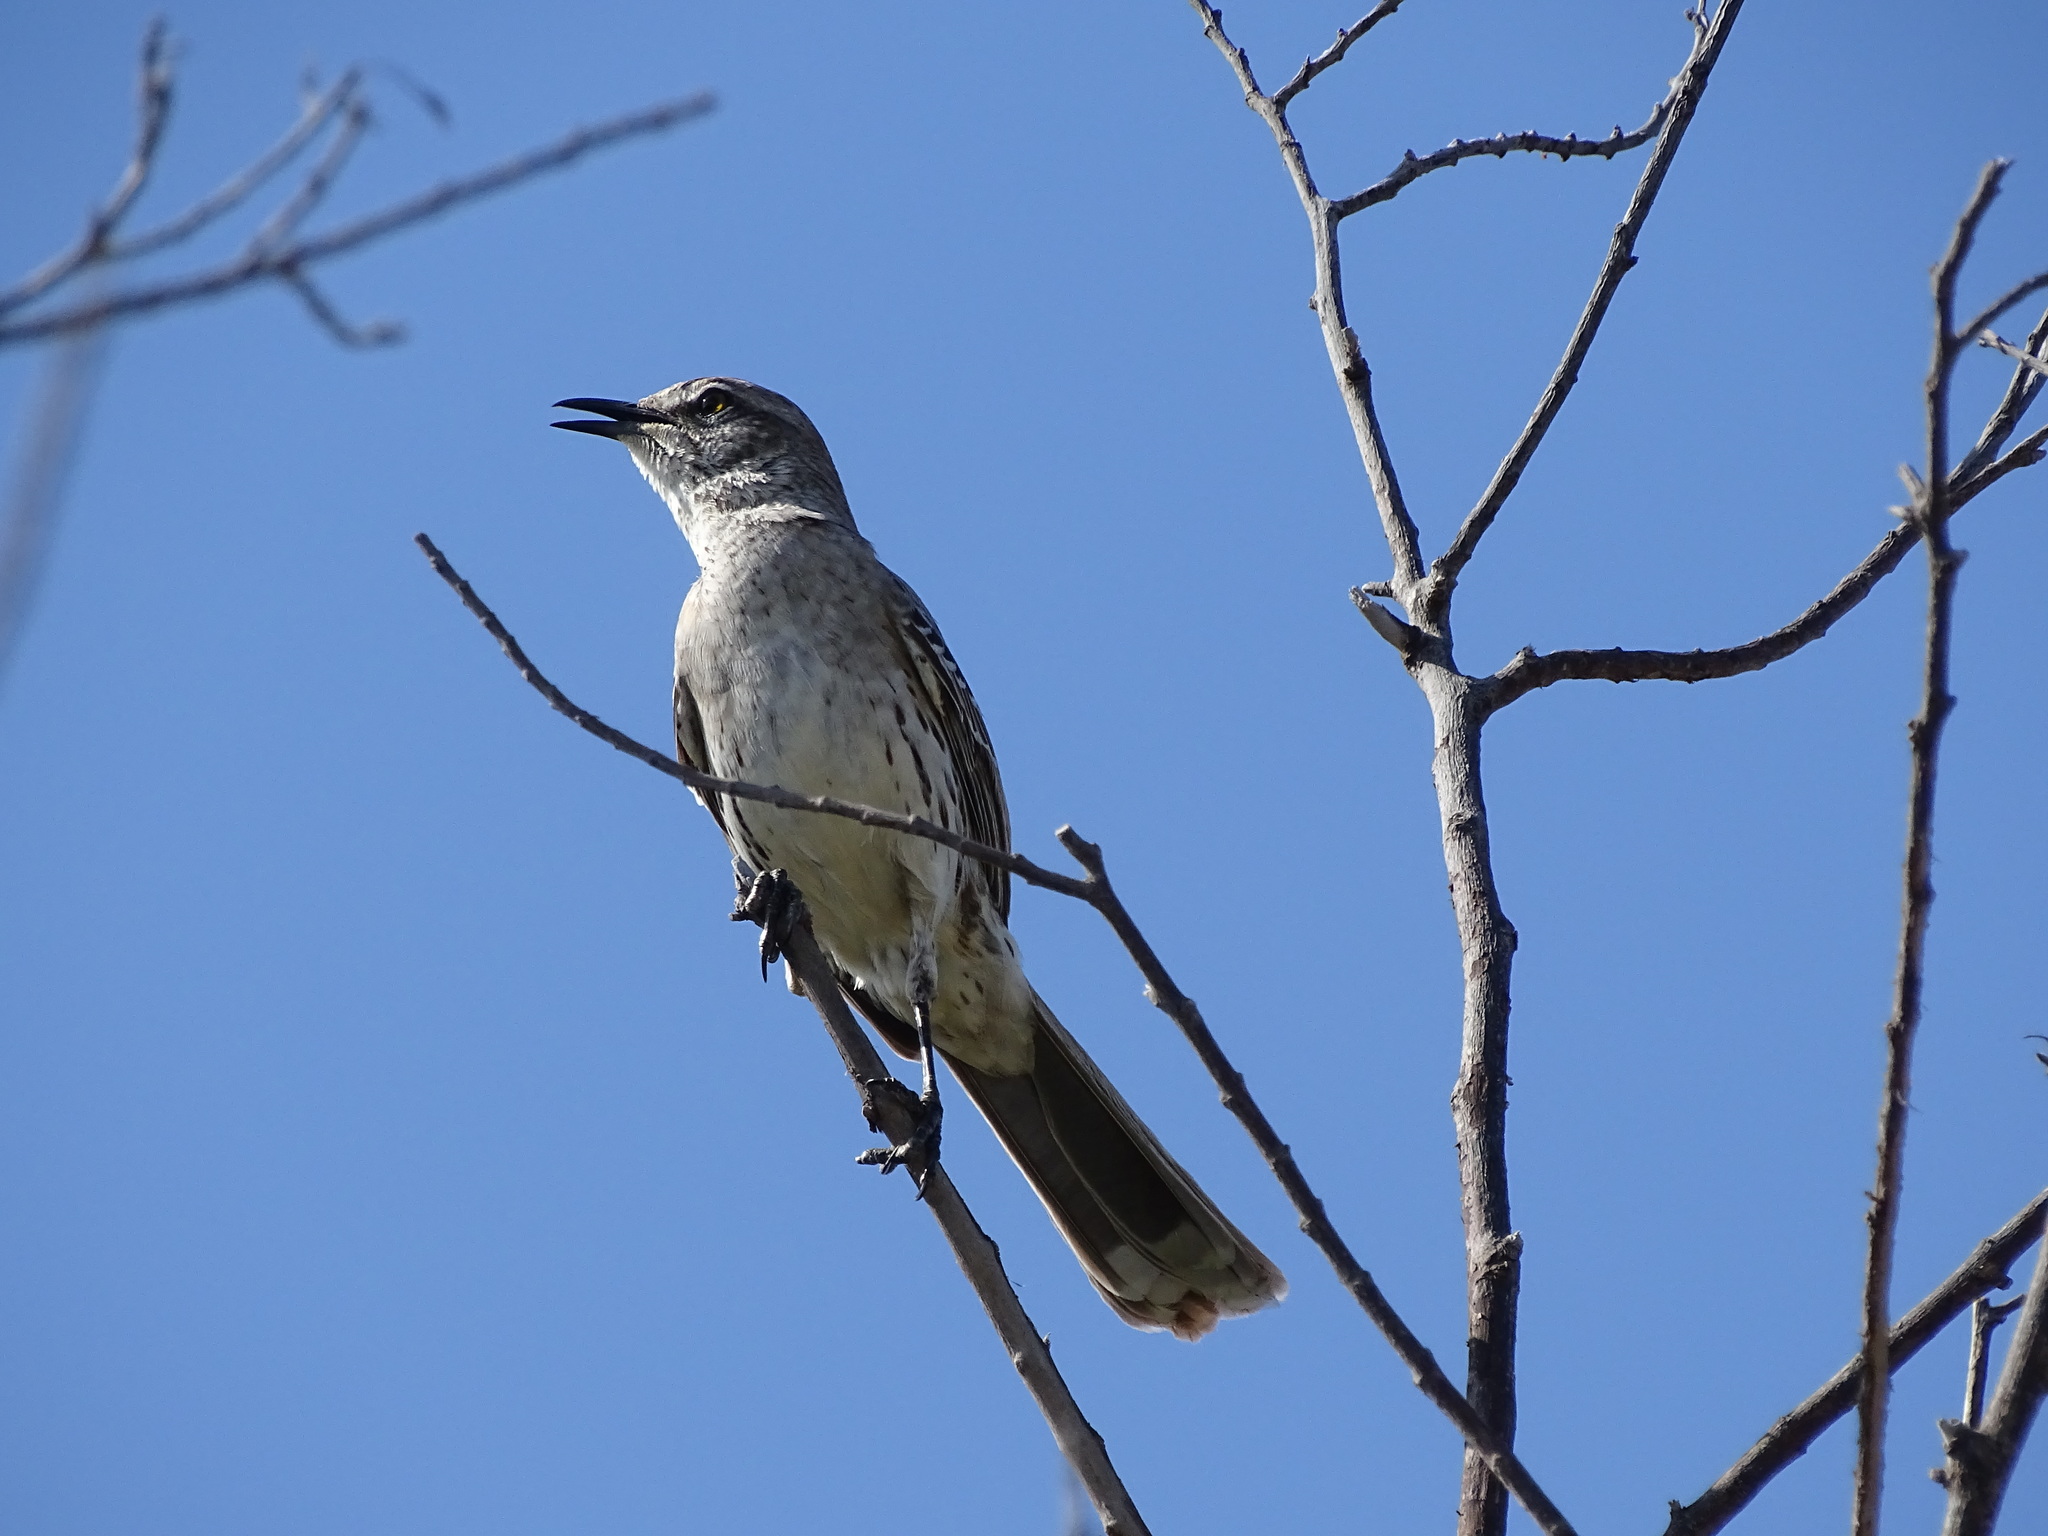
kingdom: Animalia
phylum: Chordata
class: Aves
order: Passeriformes
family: Mimidae
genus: Mimus
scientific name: Mimus gundlachii
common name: Bahama mockingbird
